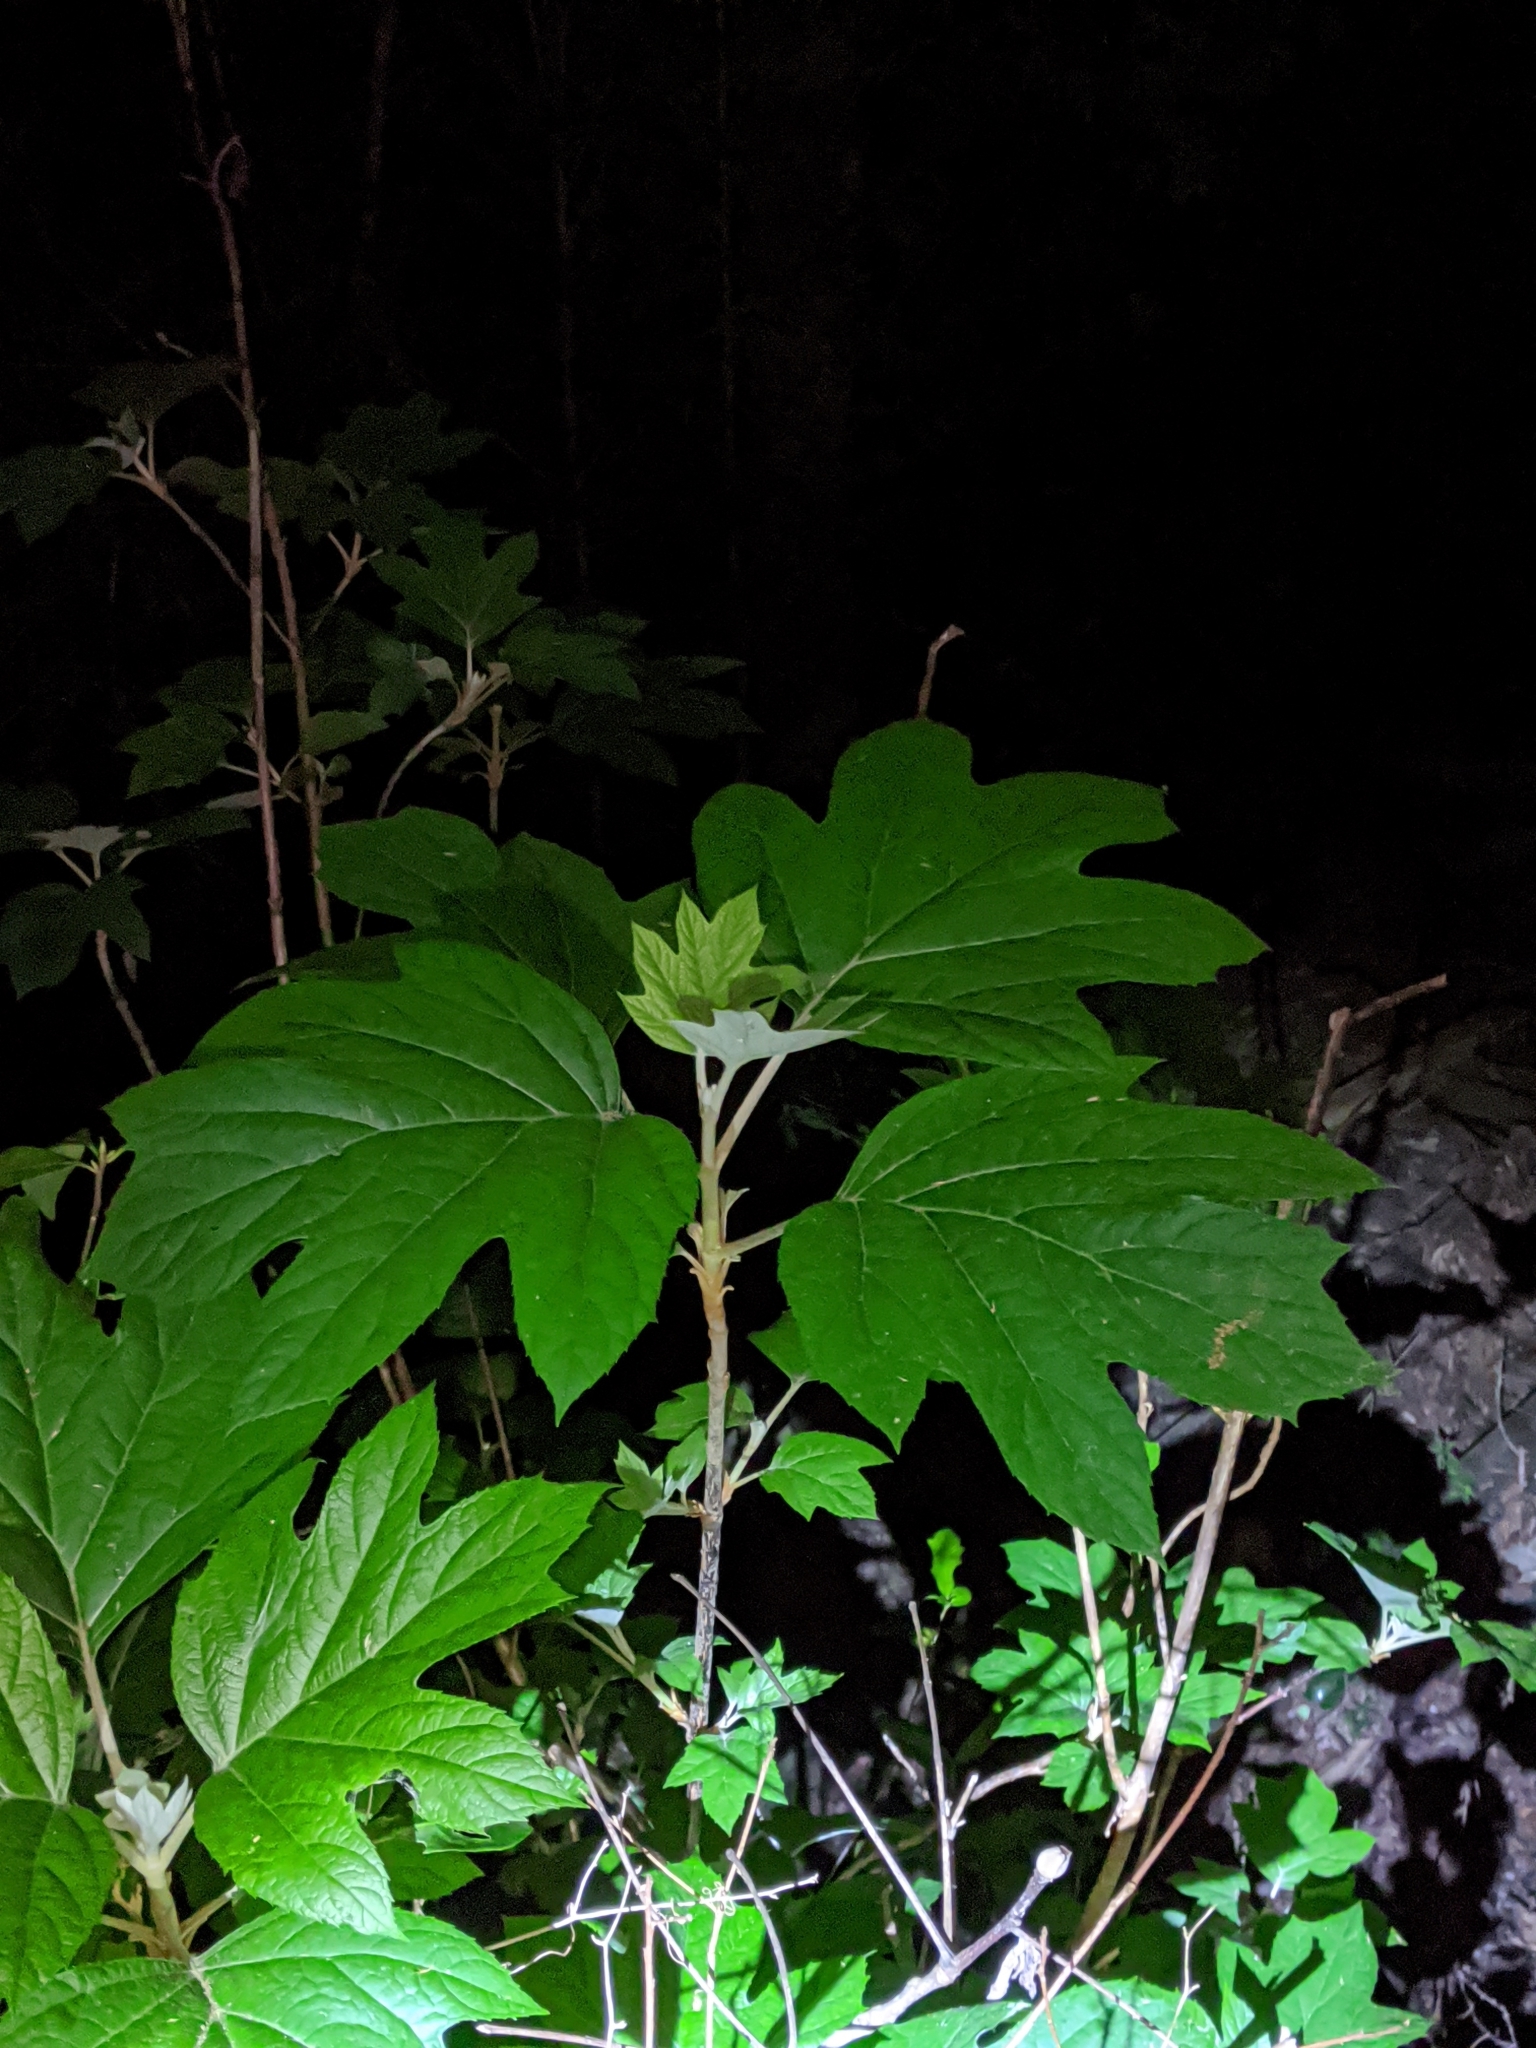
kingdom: Plantae
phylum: Tracheophyta
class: Magnoliopsida
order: Cornales
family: Hydrangeaceae
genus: Hydrangea
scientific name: Hydrangea quercifolia
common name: Oak-leaf hydrangea
